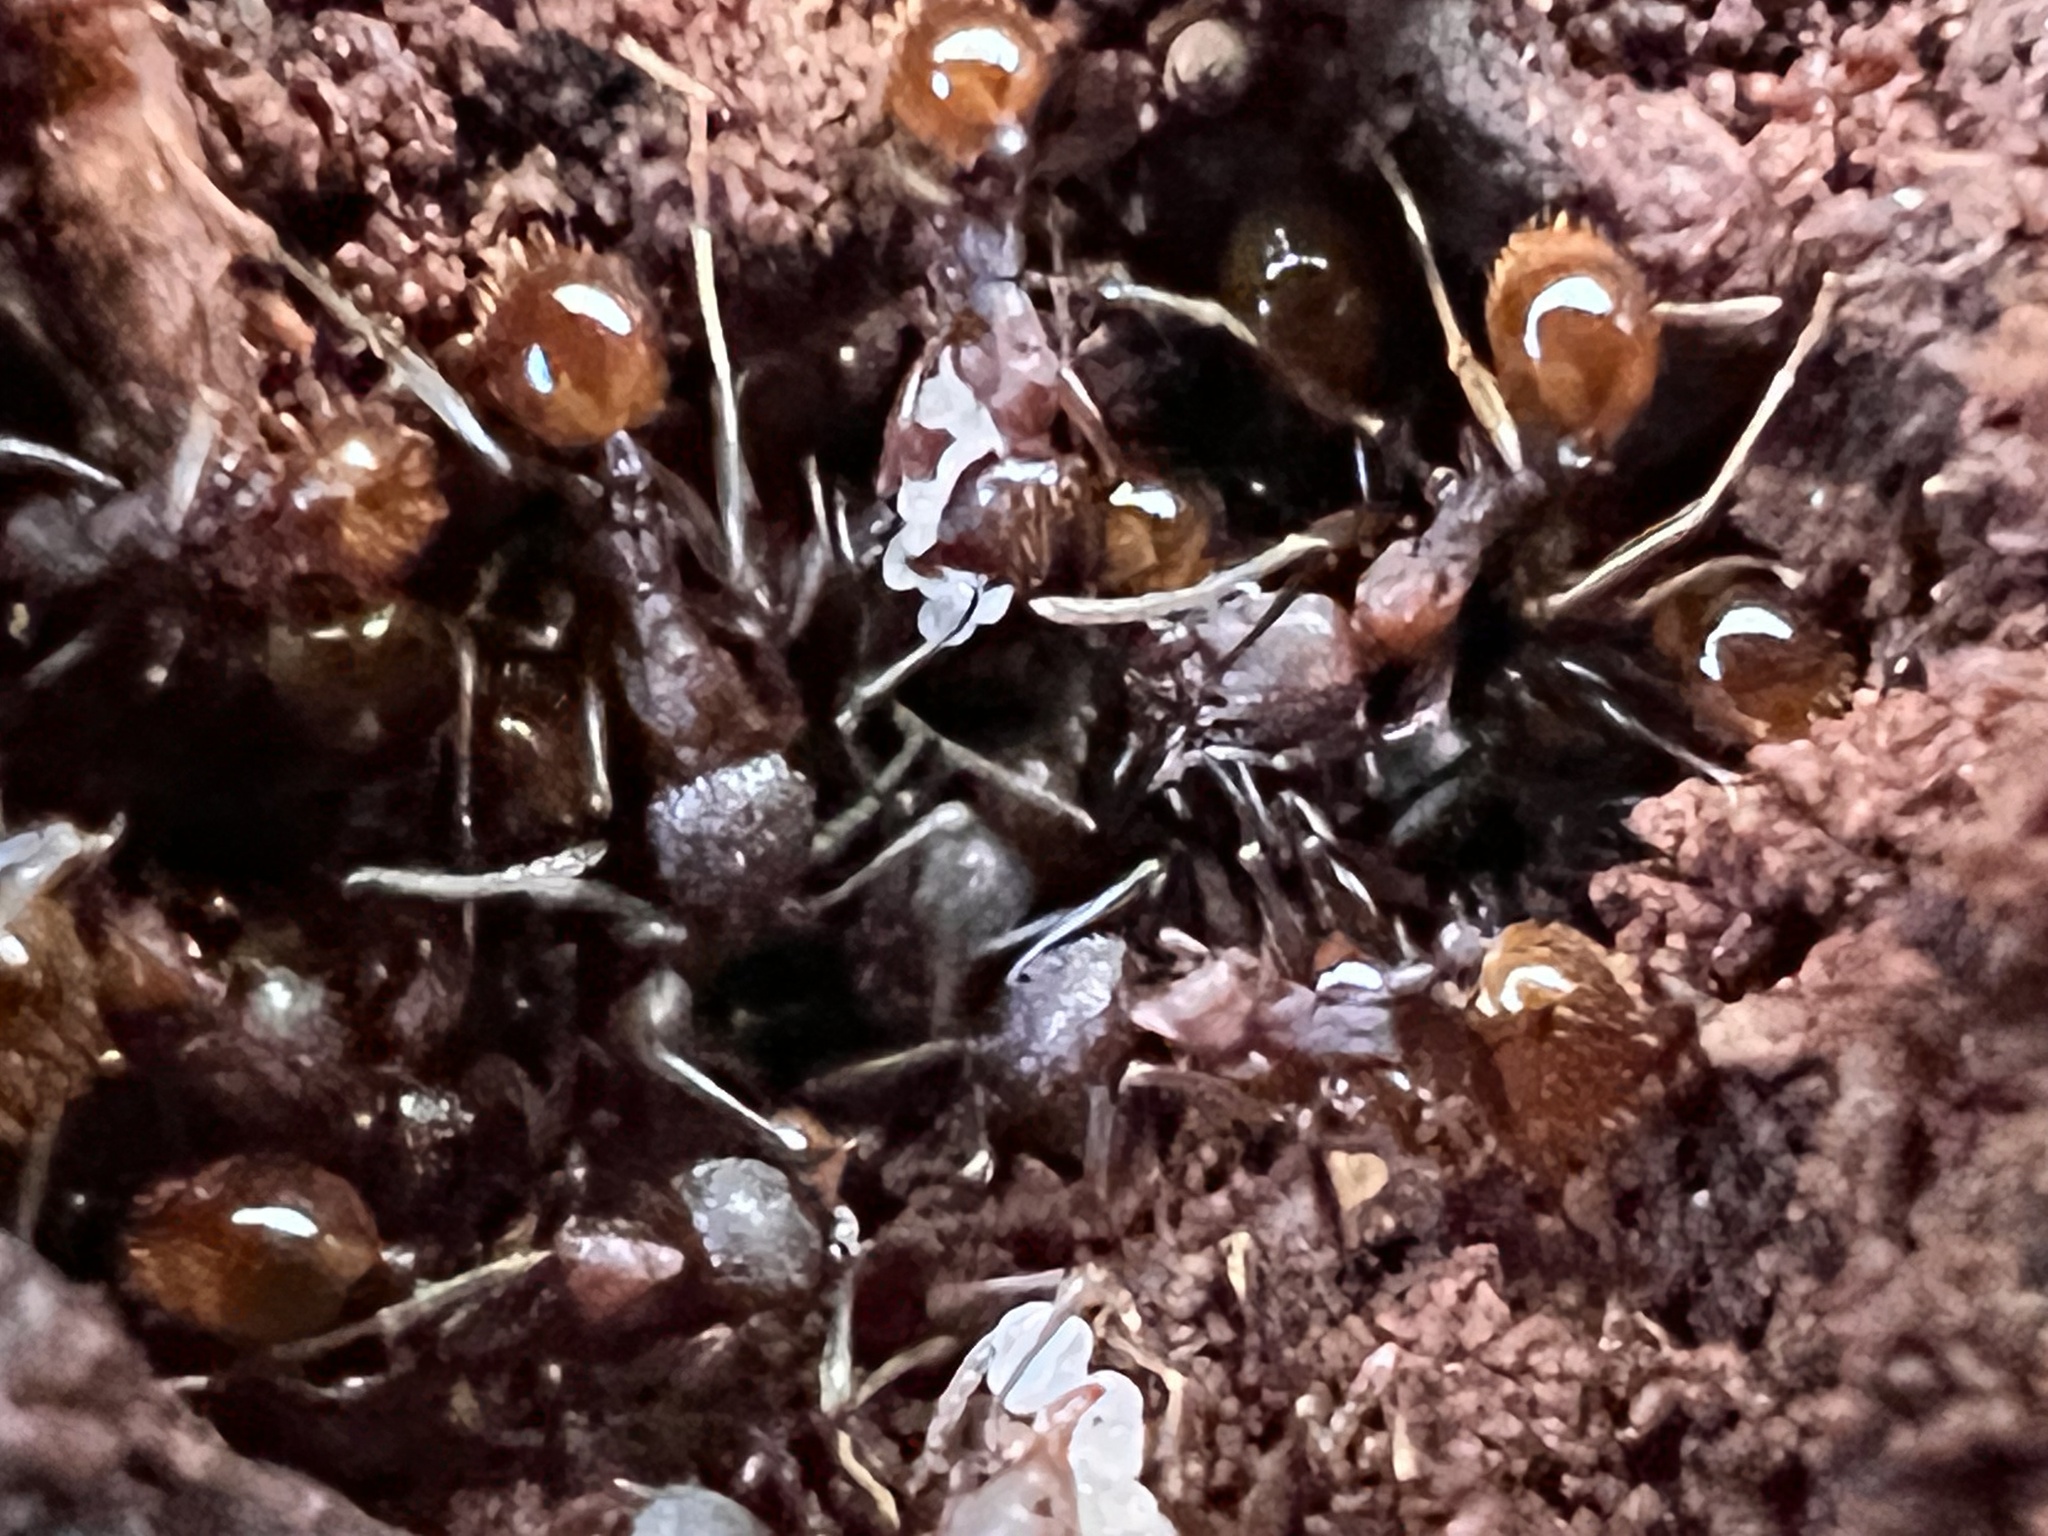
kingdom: Animalia
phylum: Arthropoda
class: Insecta
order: Hymenoptera
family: Formicidae
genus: Aphaenogaster
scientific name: Aphaenogaster fulva
